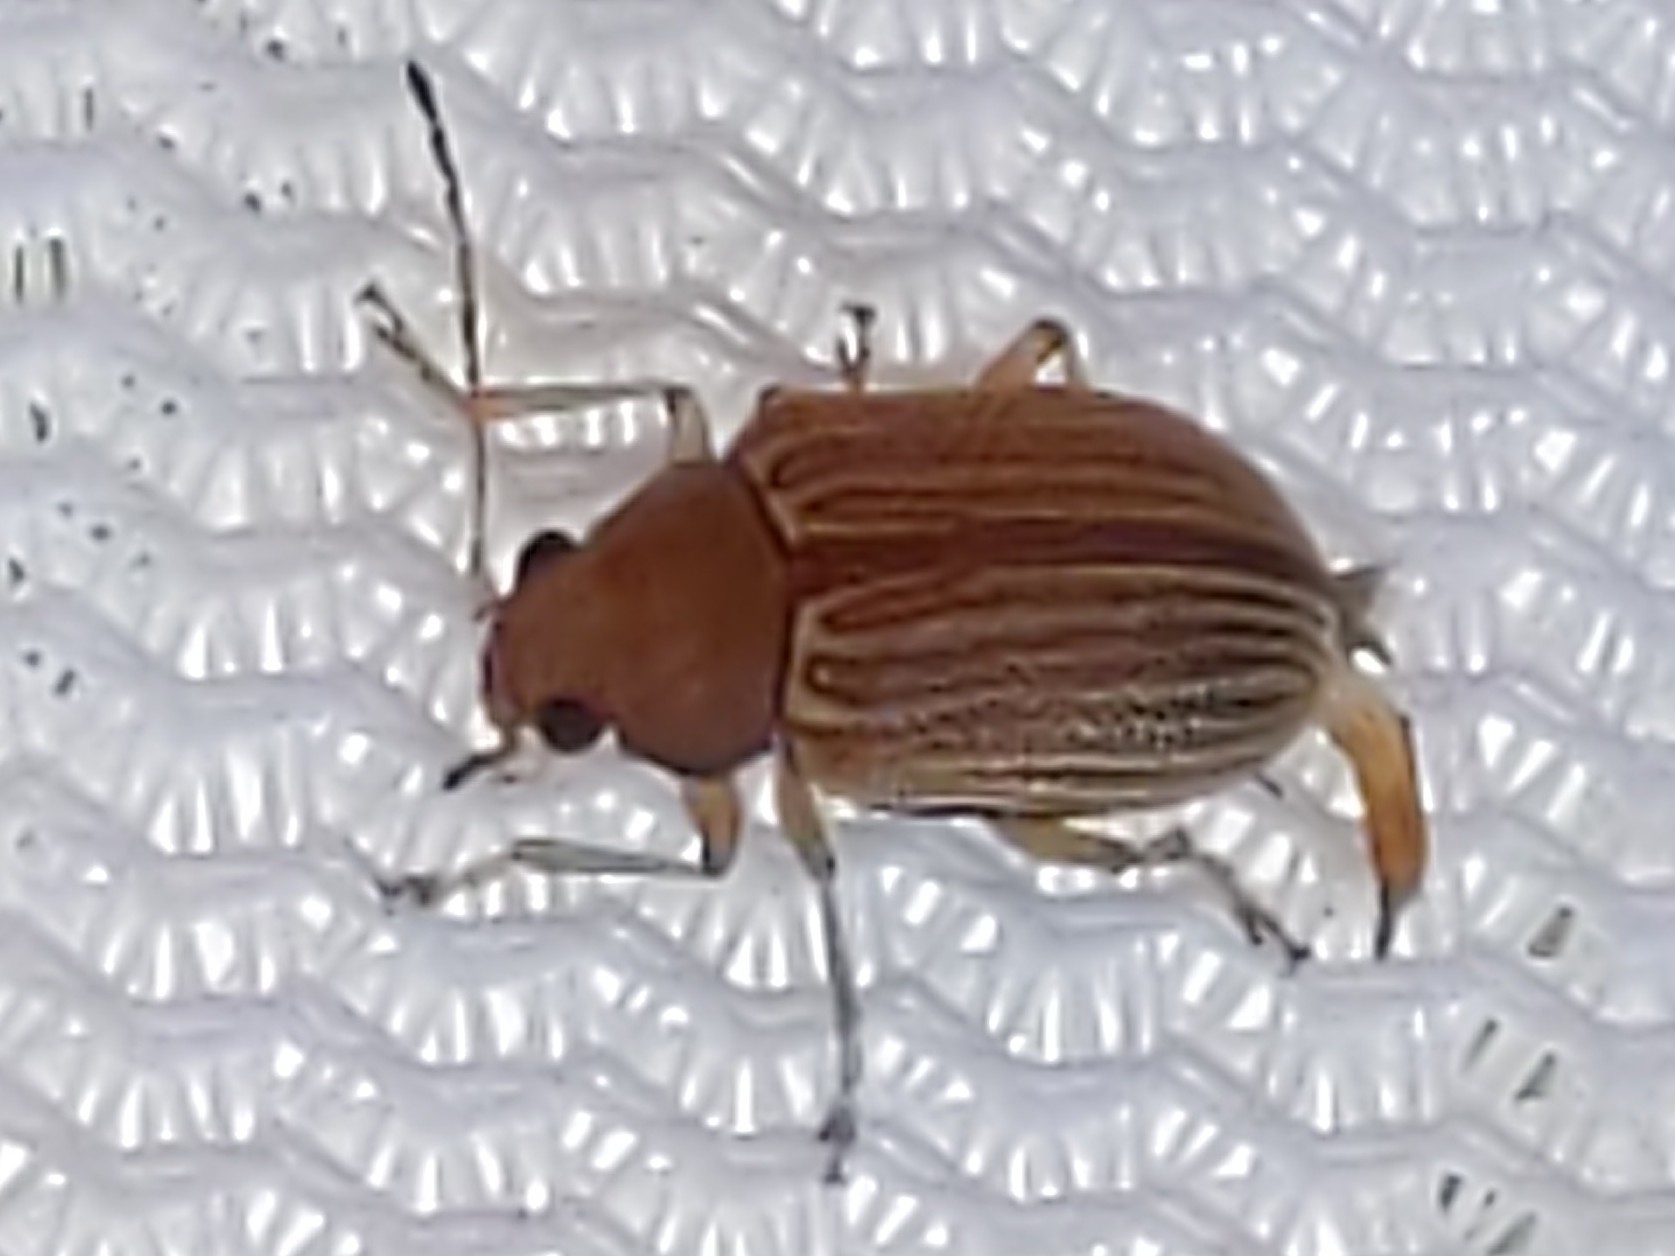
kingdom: Animalia
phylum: Arthropoda
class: Insecta
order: Coleoptera
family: Chrysomelidae
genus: Colaspis
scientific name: Colaspis brunnea
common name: Grape colaspis
